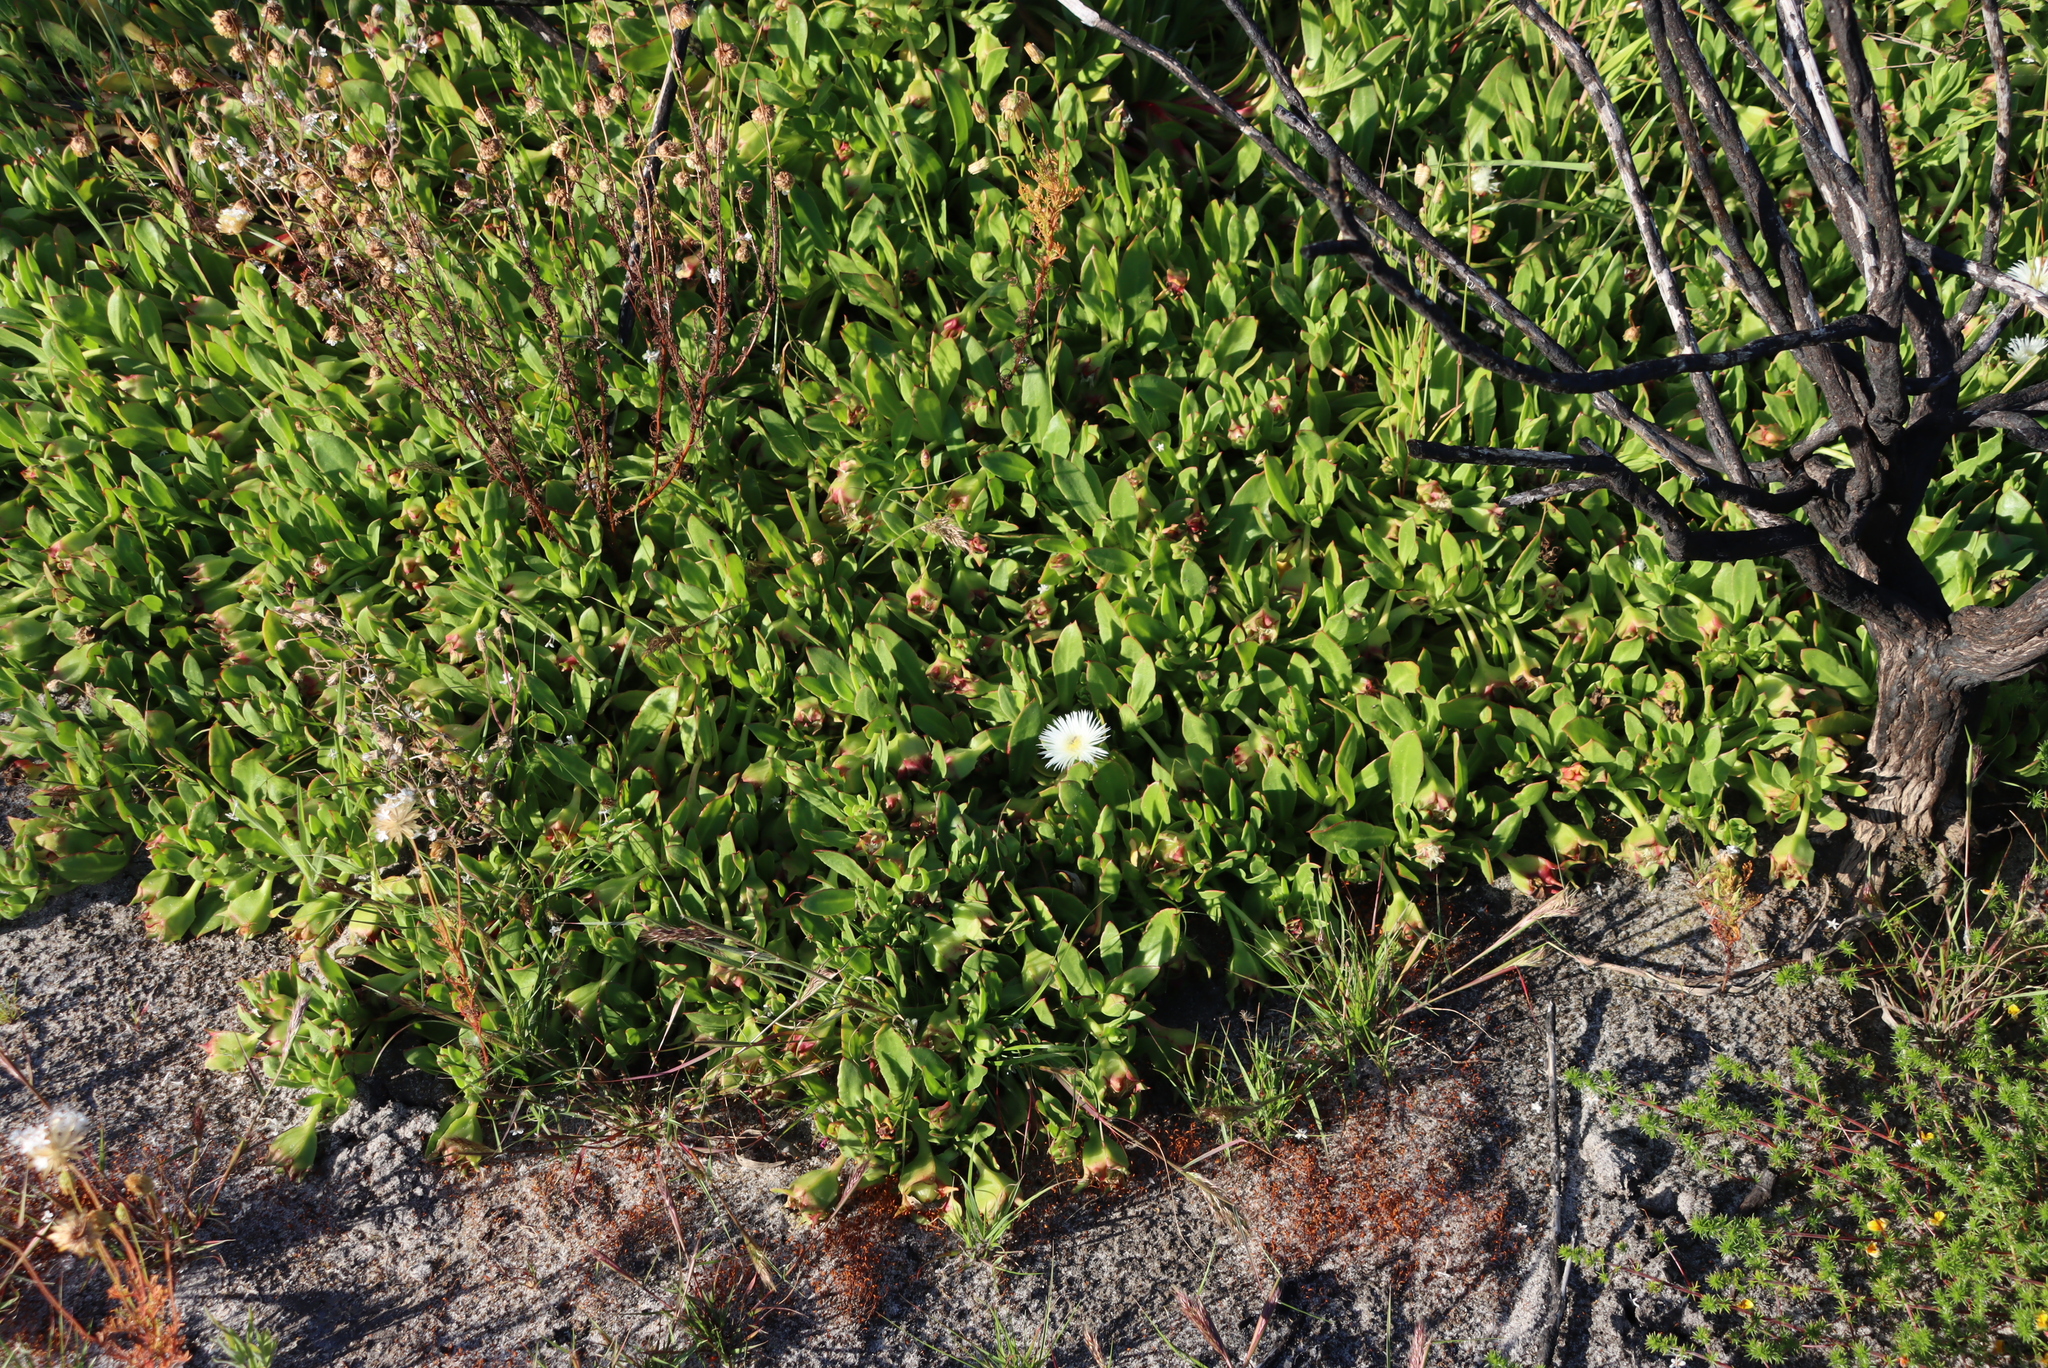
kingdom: Plantae
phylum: Tracheophyta
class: Magnoliopsida
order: Caryophyllales
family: Aizoaceae
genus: Skiatophytum
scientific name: Skiatophytum tripolium
